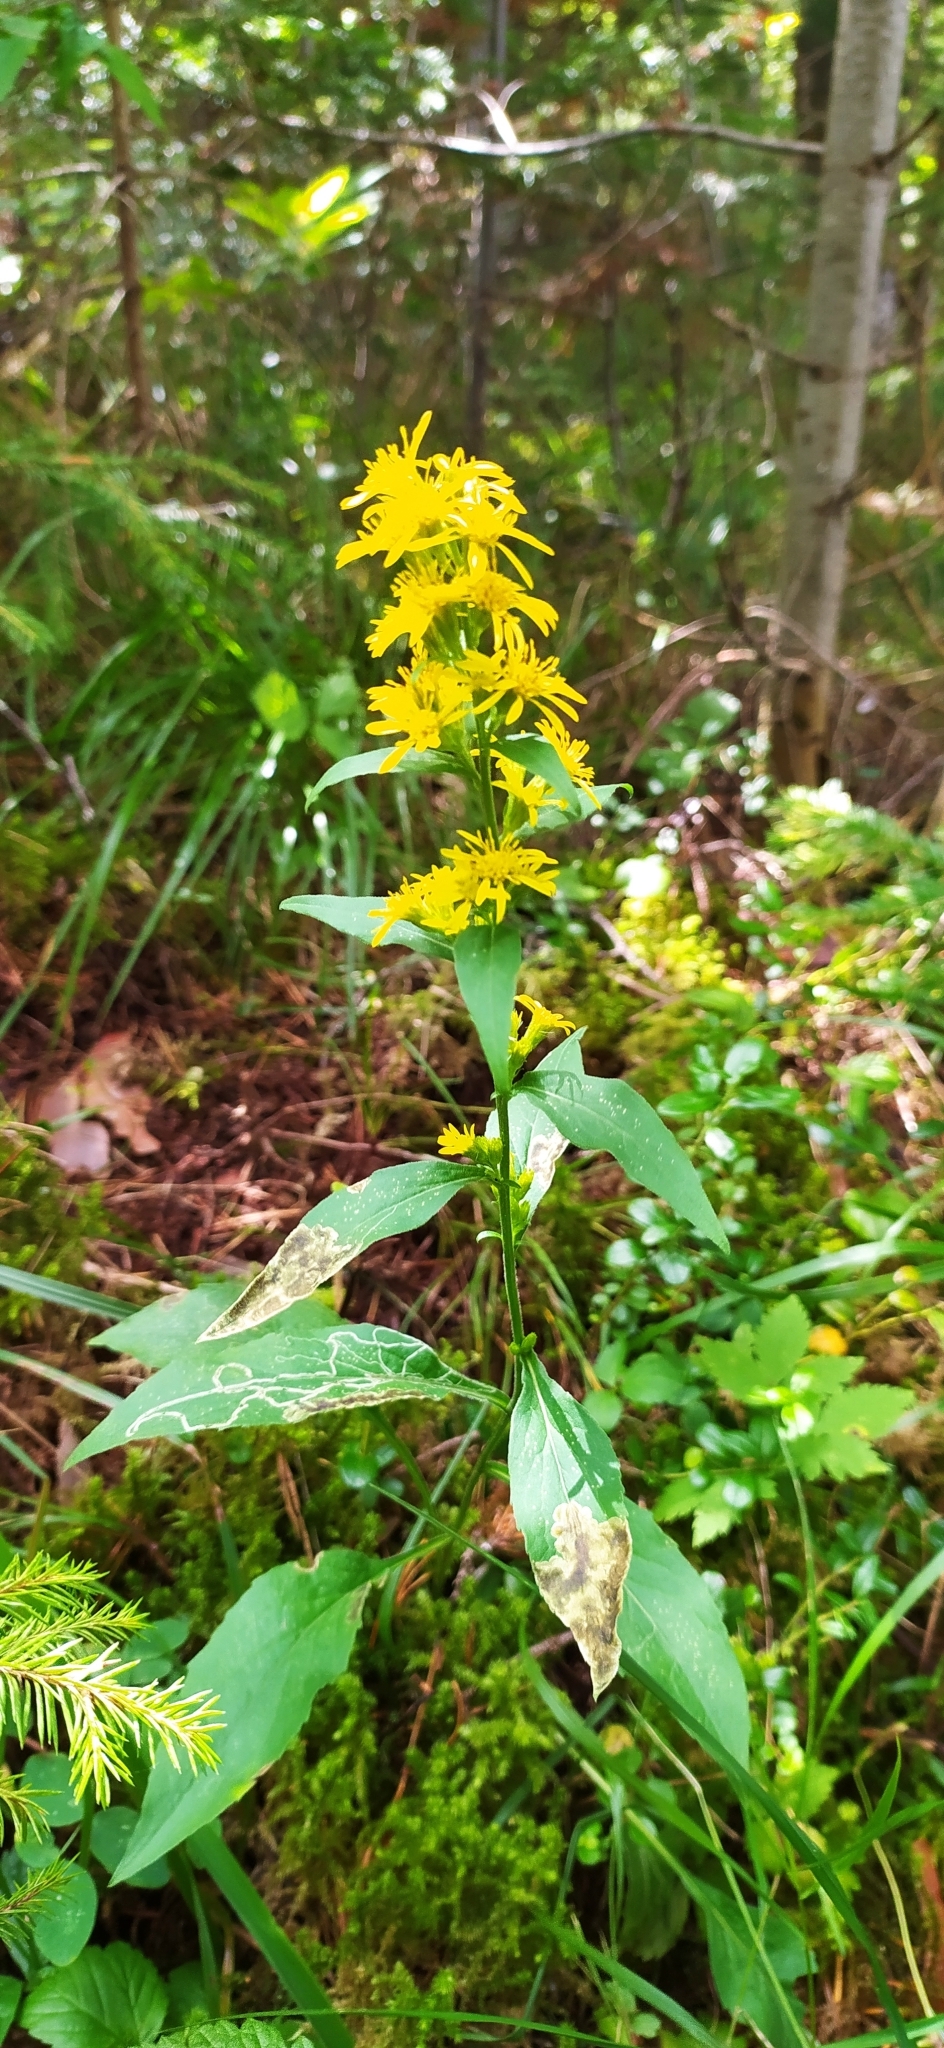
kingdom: Plantae
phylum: Tracheophyta
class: Magnoliopsida
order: Asterales
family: Asteraceae
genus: Solidago
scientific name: Solidago virgaurea
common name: Goldenrod
